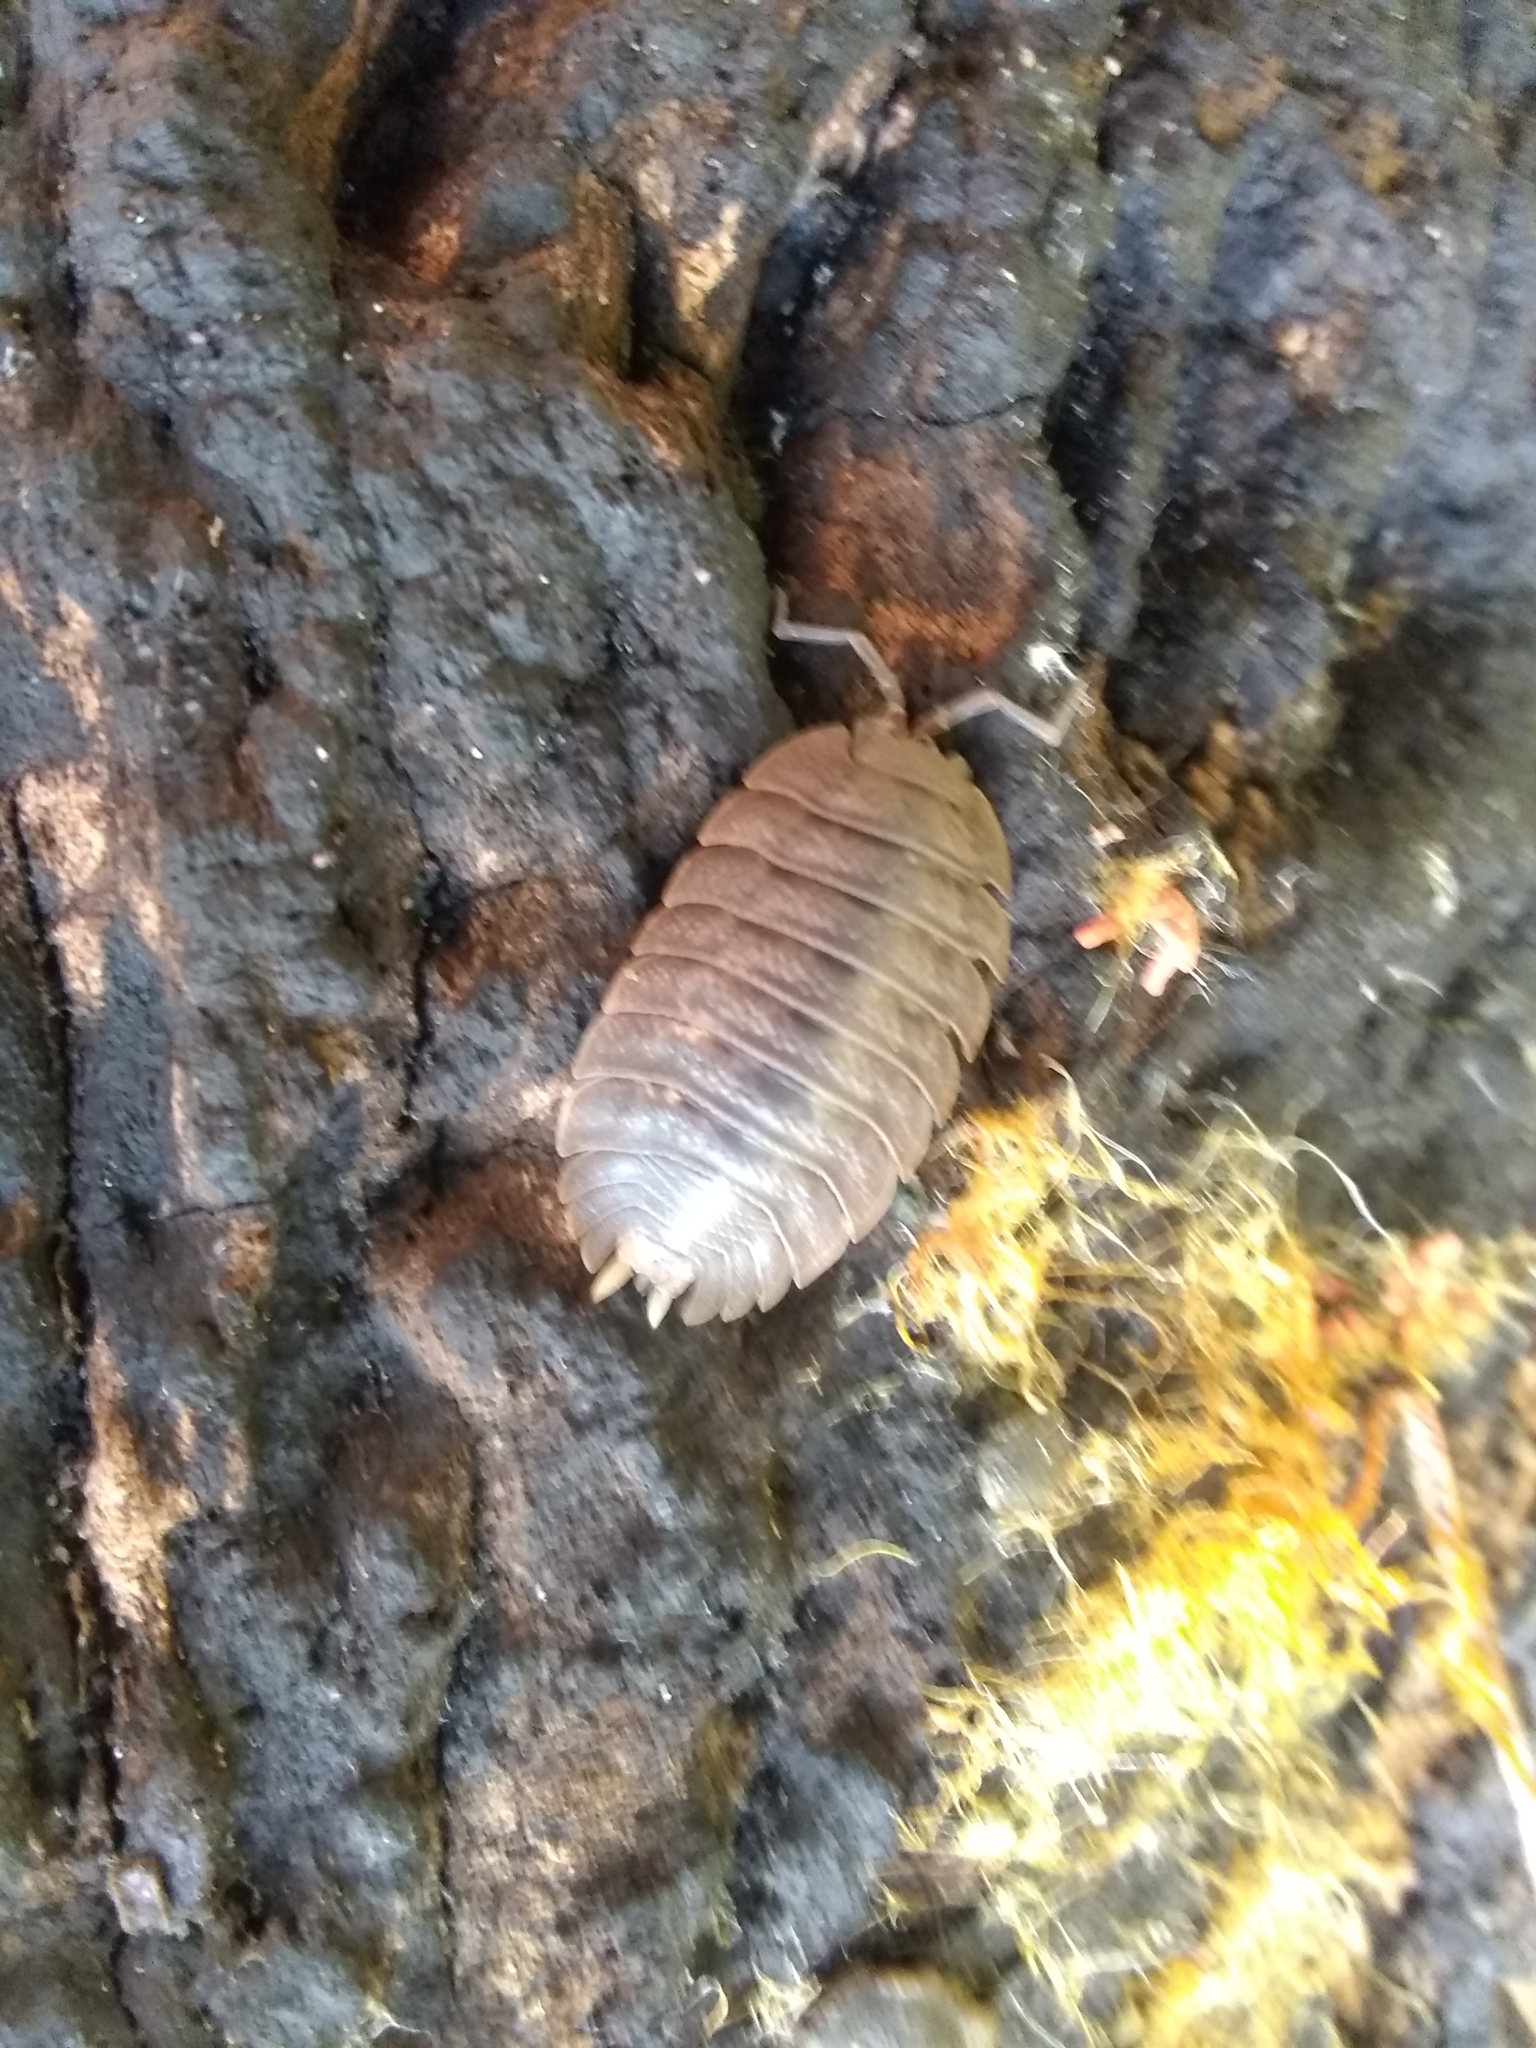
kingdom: Animalia
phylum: Arthropoda
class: Malacostraca
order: Isopoda
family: Porcellionidae
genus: Porcellio
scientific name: Porcellio dilatatus
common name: Isopod
